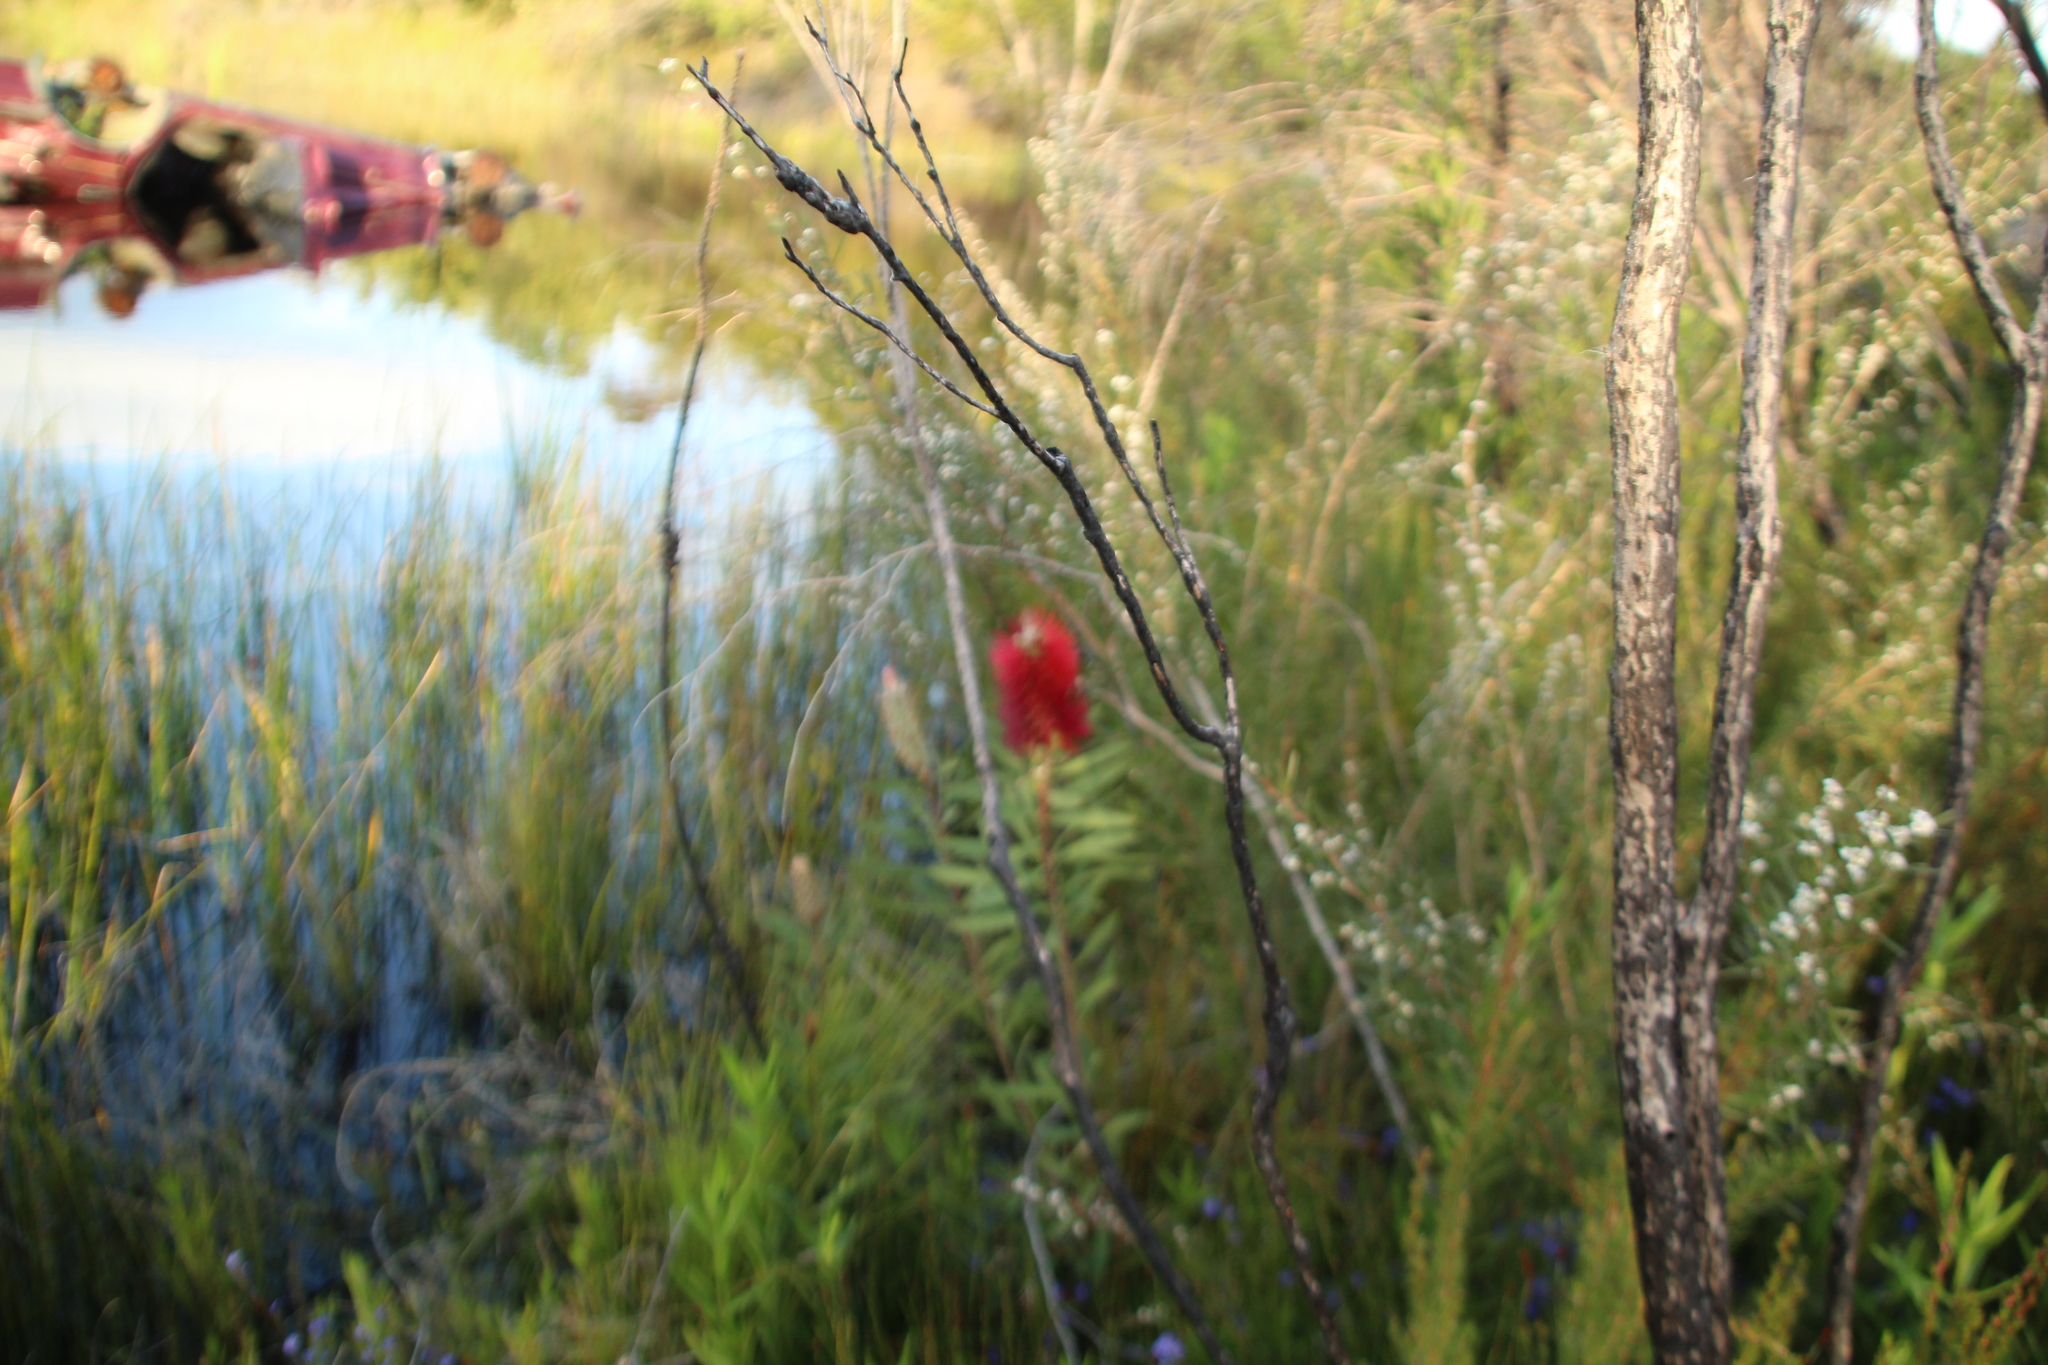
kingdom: Plantae
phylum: Tracheophyta
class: Magnoliopsida
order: Myrtales
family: Myrtaceae
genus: Melaleuca
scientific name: Melaleuca glauca
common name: Albany-bottlebrush
